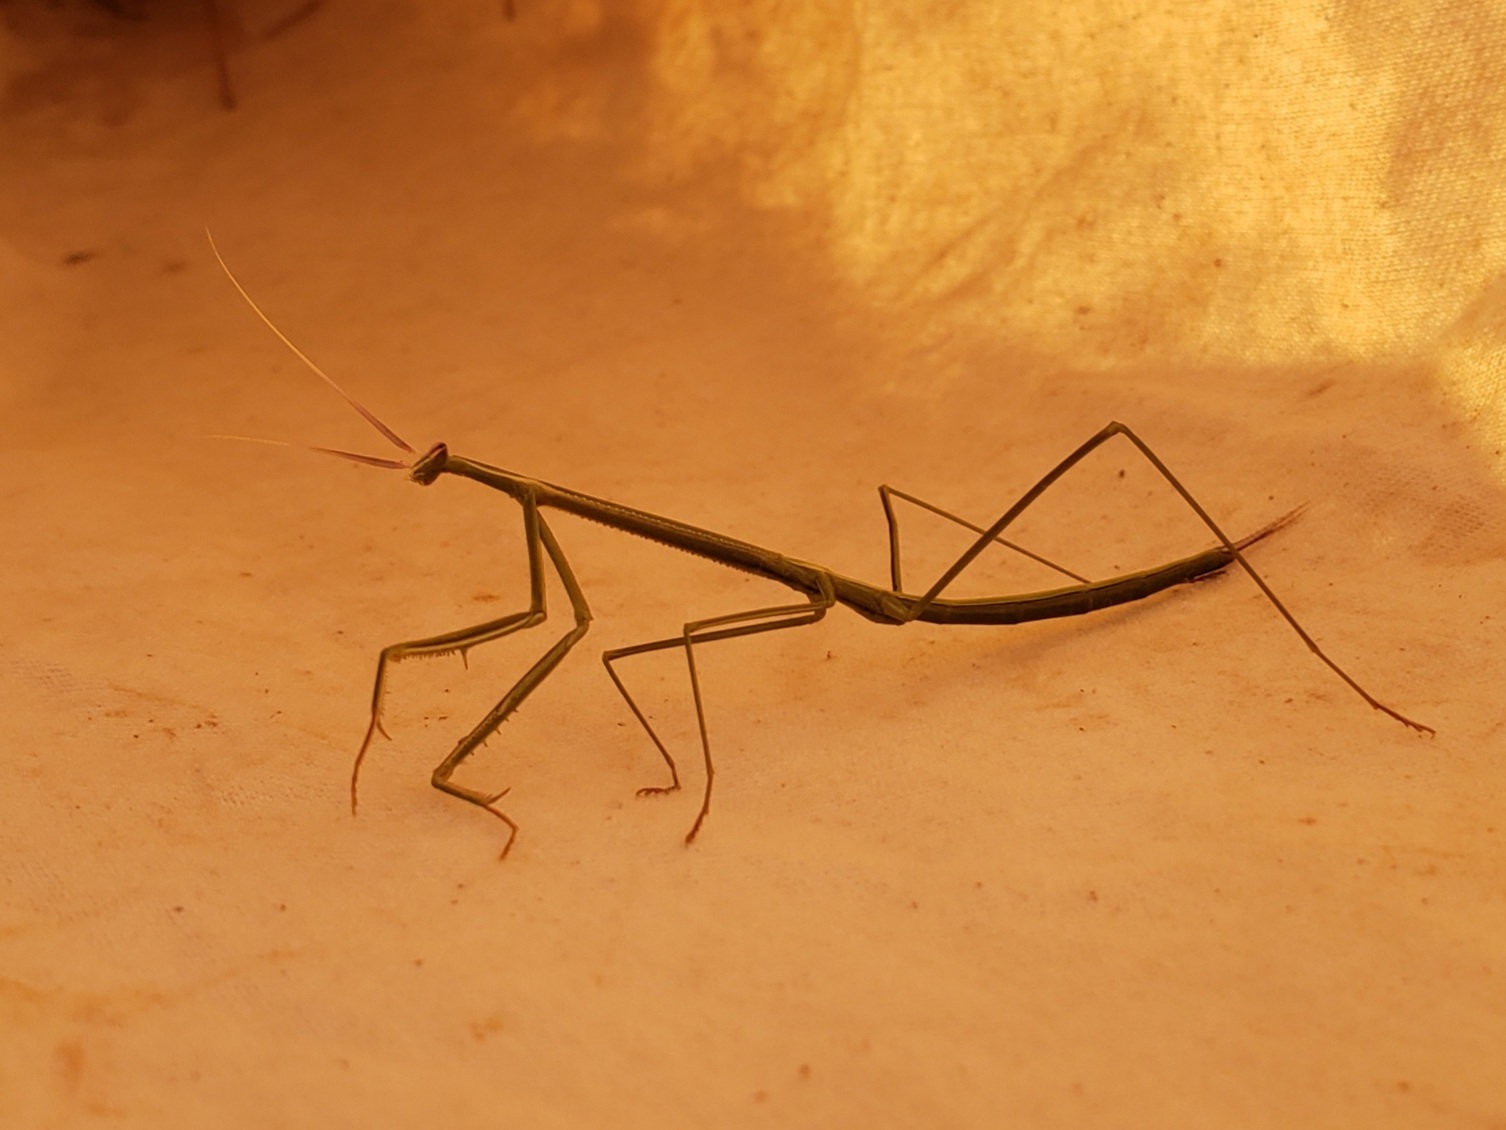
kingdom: Animalia
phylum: Arthropoda
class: Insecta
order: Mantodea
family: Coptopterygidae
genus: Brunneria
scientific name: Brunneria borealis
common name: Mantis
